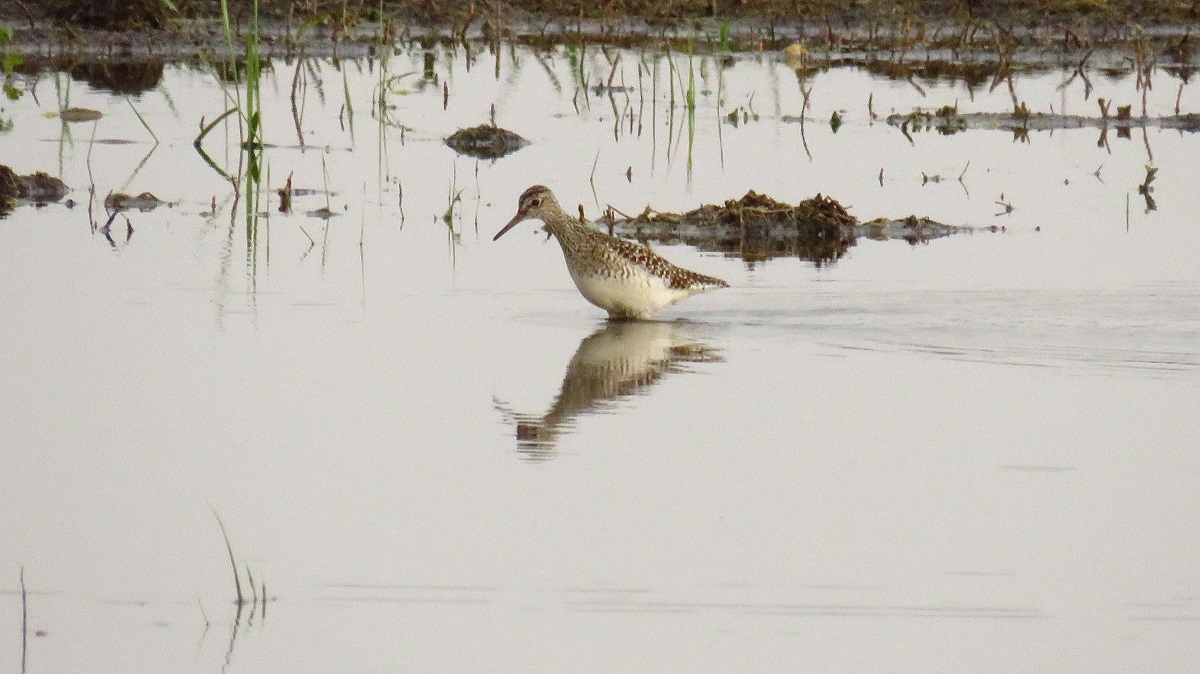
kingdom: Animalia
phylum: Chordata
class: Aves
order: Charadriiformes
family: Scolopacidae
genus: Tringa
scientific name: Tringa glareola
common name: Wood sandpiper
